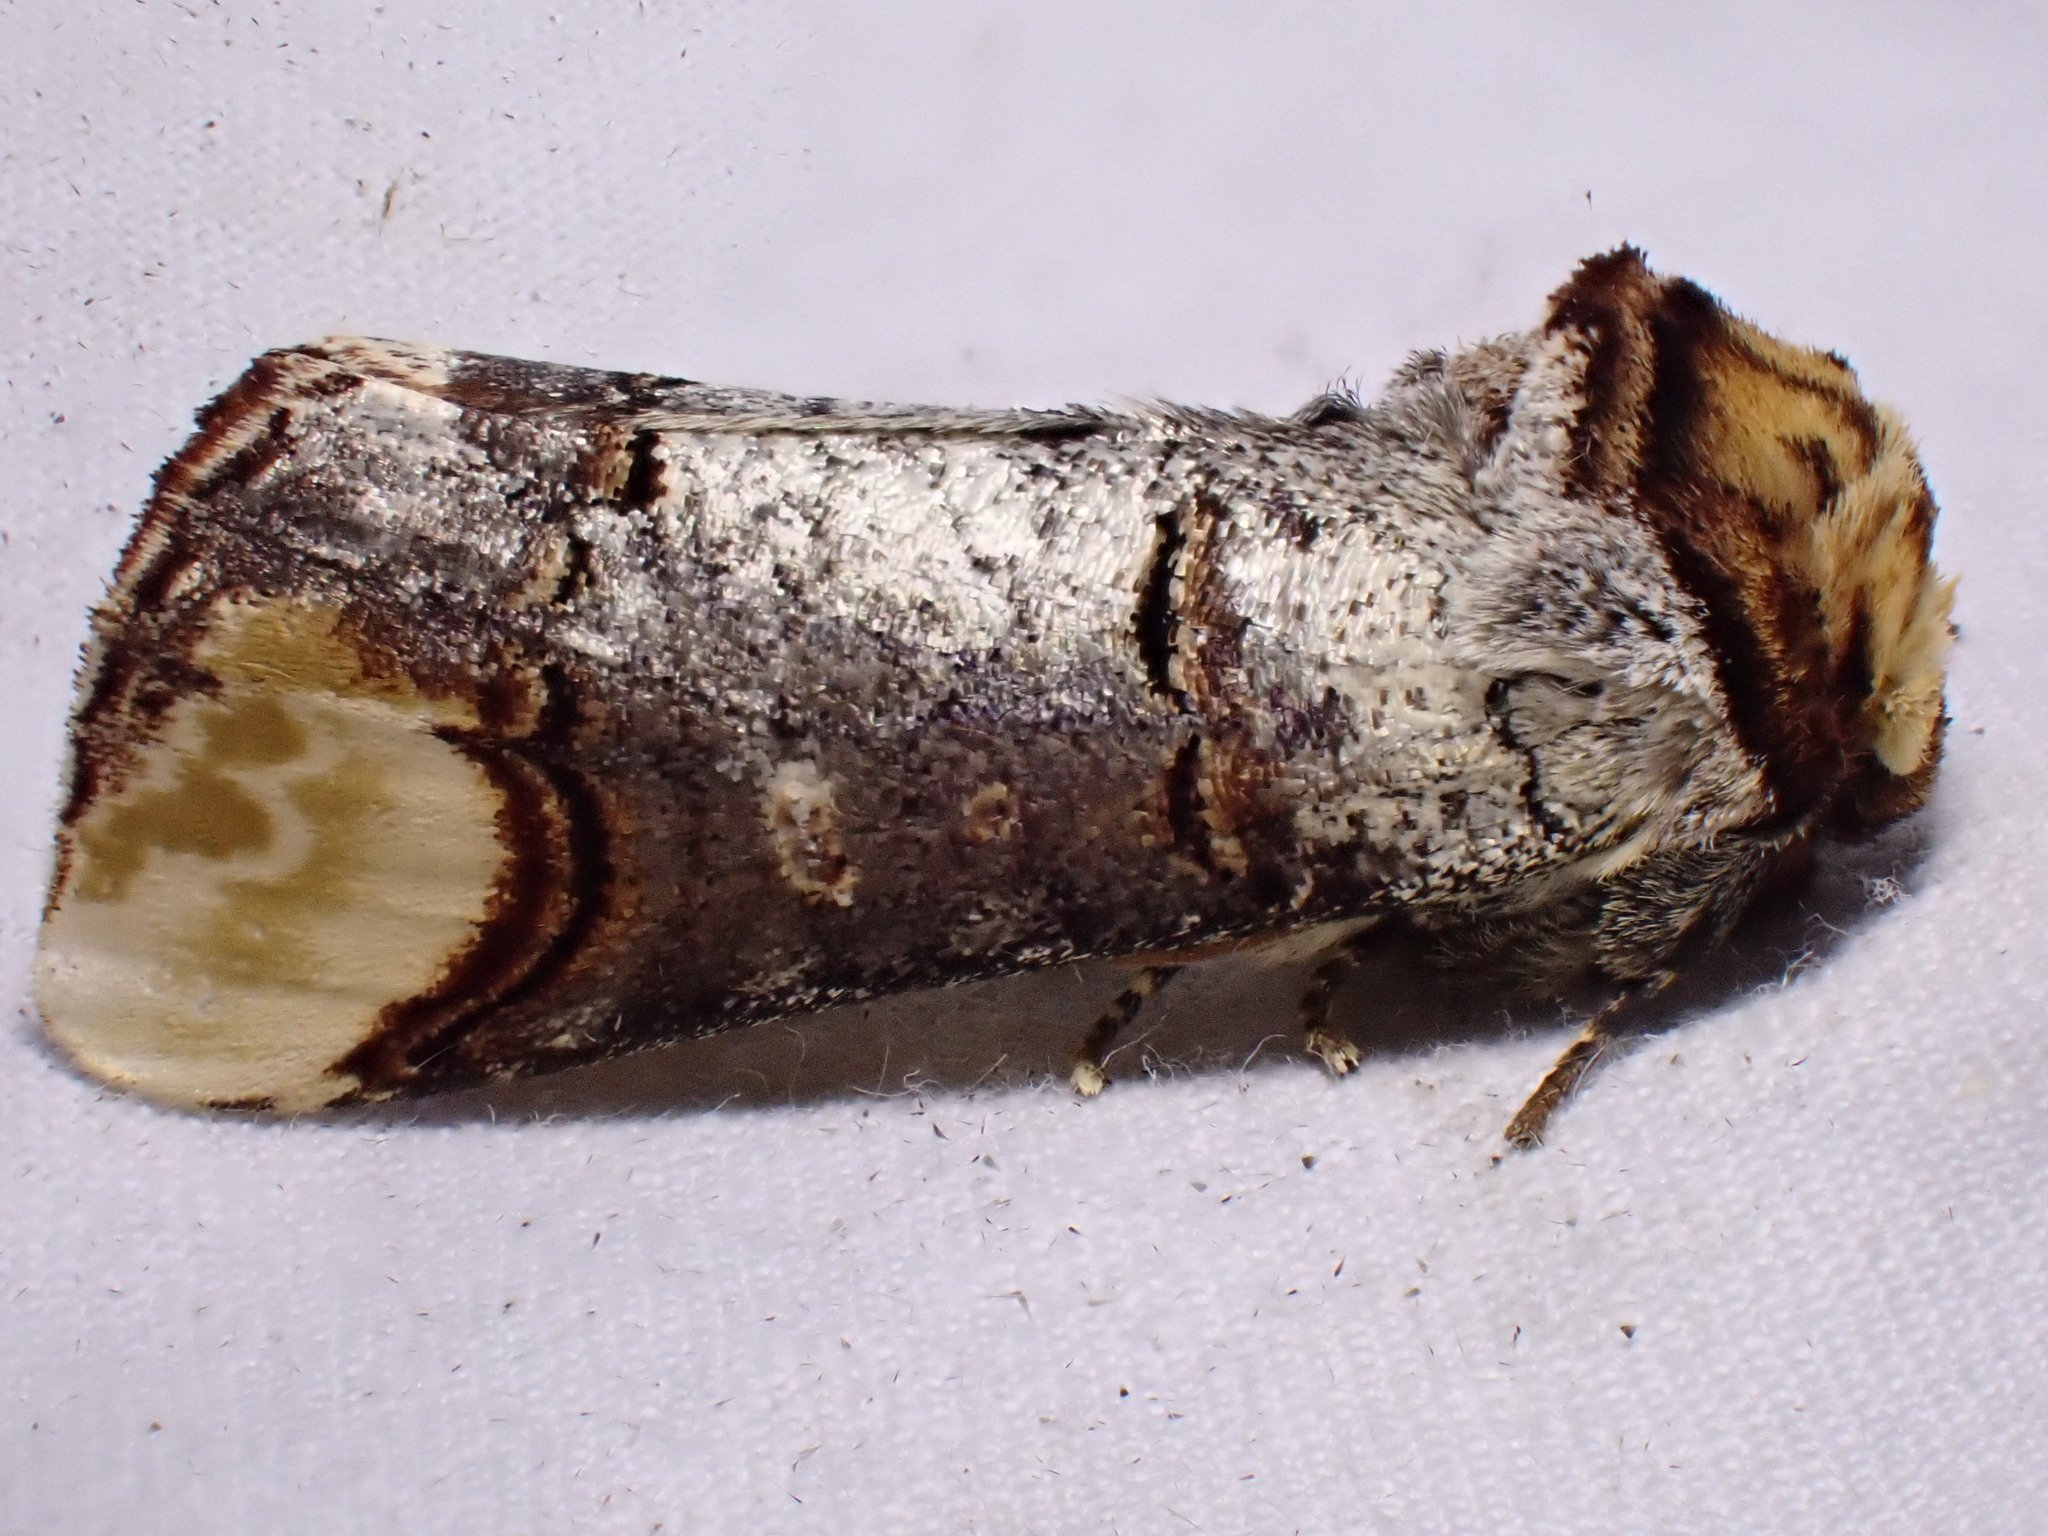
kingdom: Animalia
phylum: Arthropoda
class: Insecta
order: Lepidoptera
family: Notodontidae
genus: Phalera
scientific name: Phalera bucephala
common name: Buff-tip
